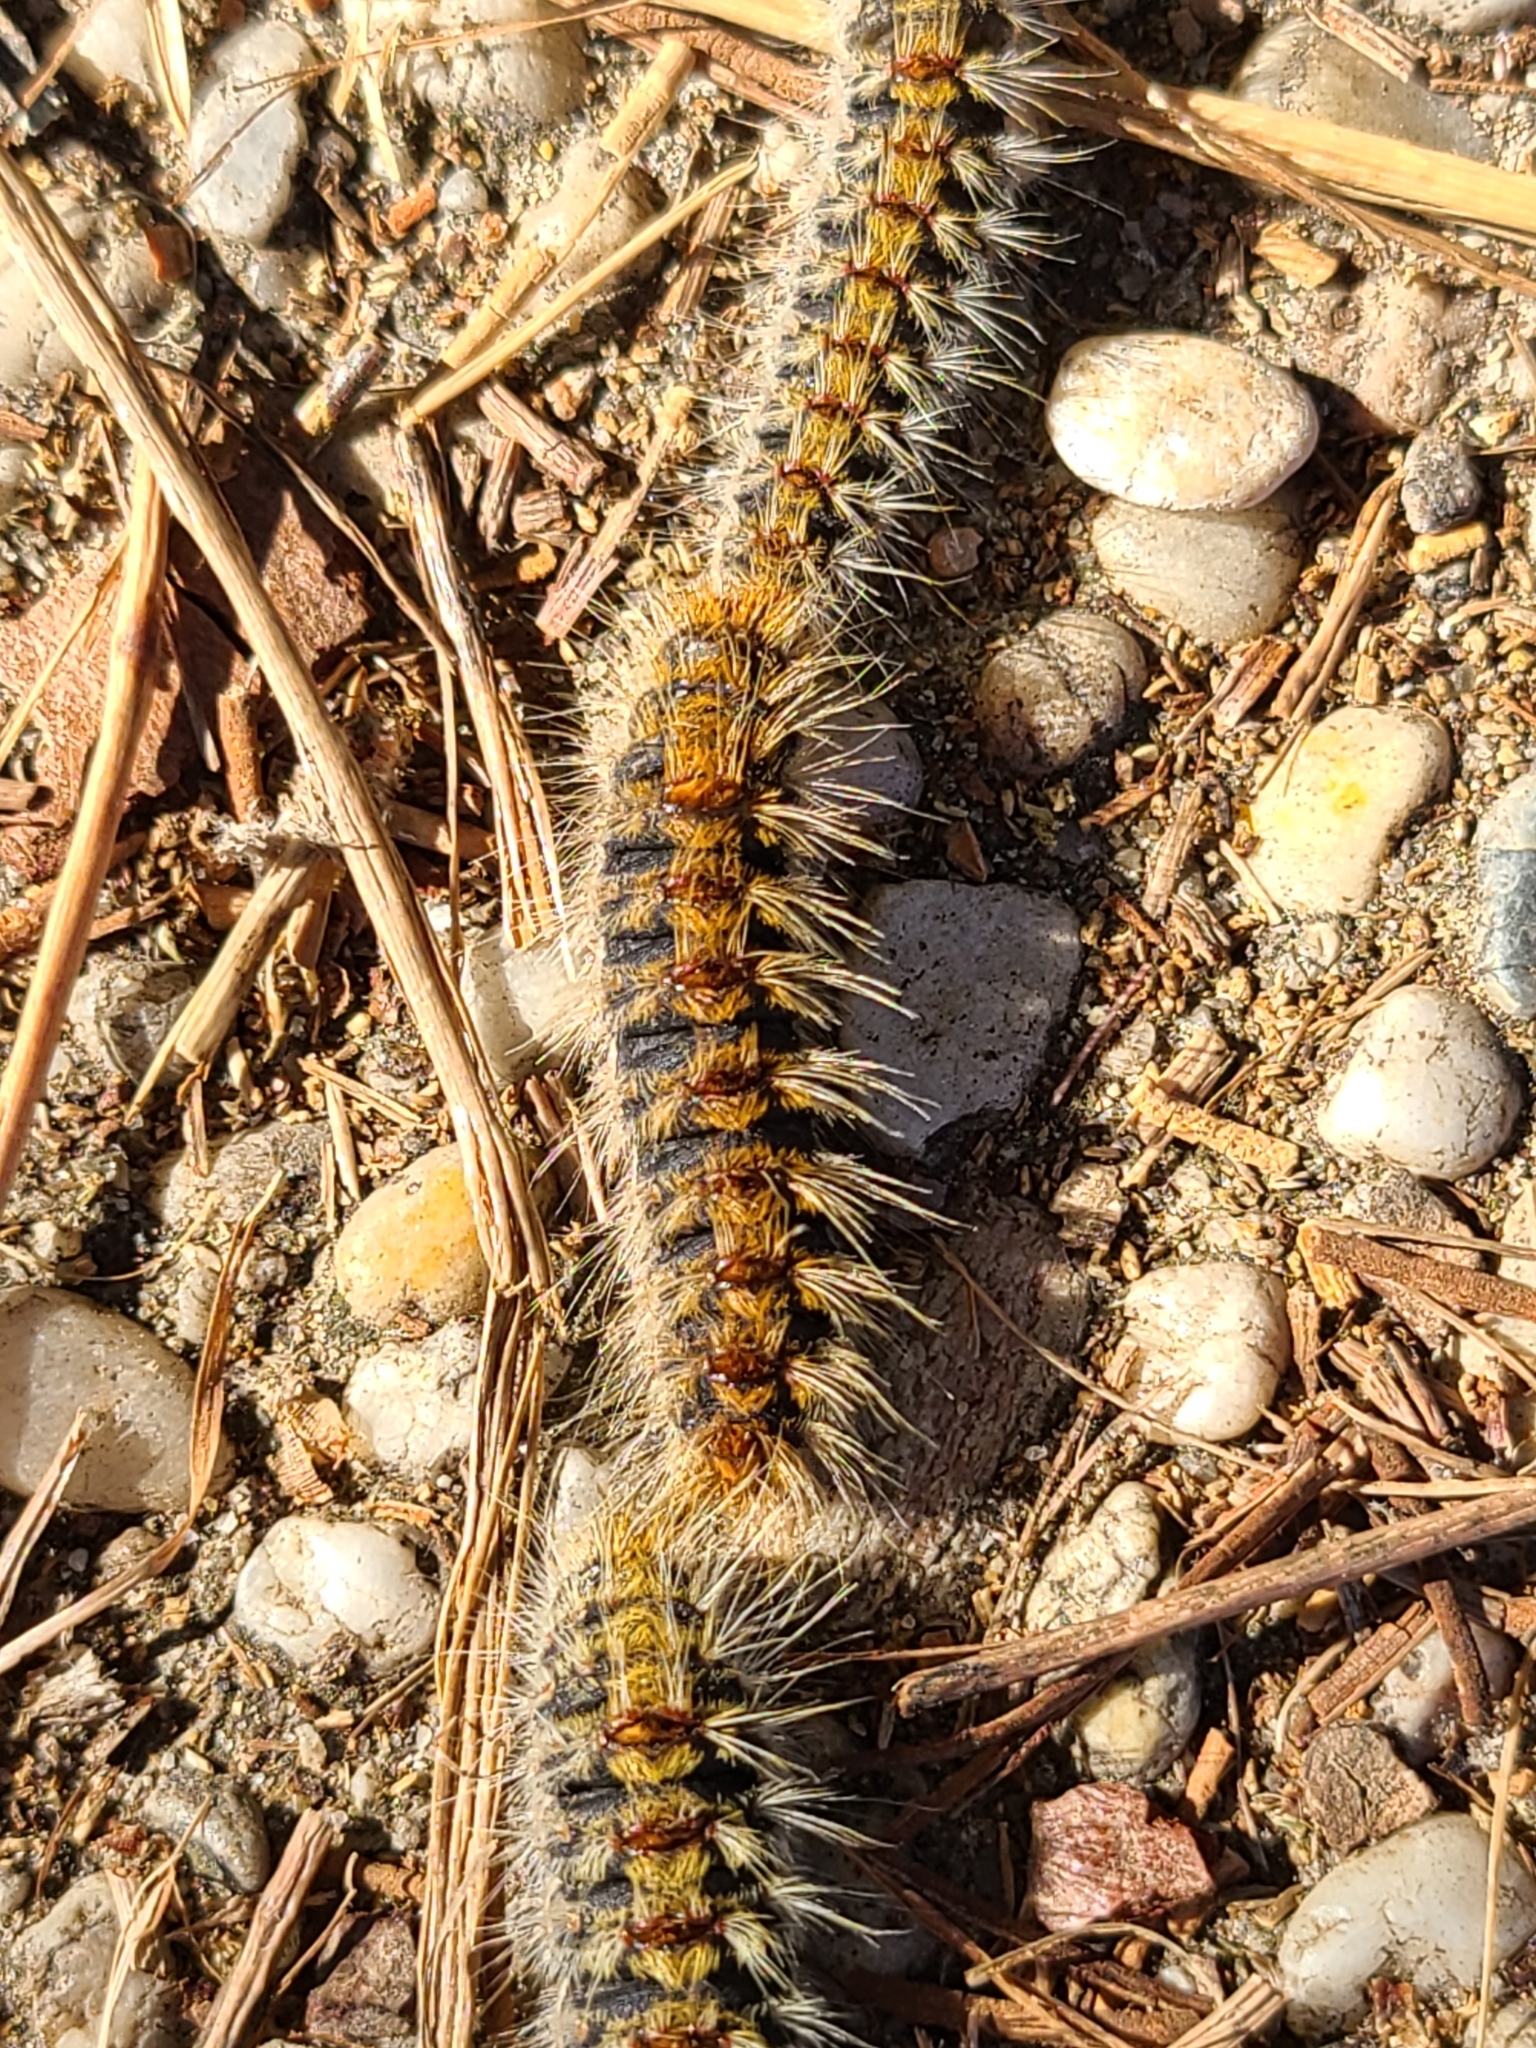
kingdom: Animalia
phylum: Arthropoda
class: Insecta
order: Lepidoptera
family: Notodontidae
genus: Thaumetopoea
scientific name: Thaumetopoea pityocampa
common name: Pine processionary
